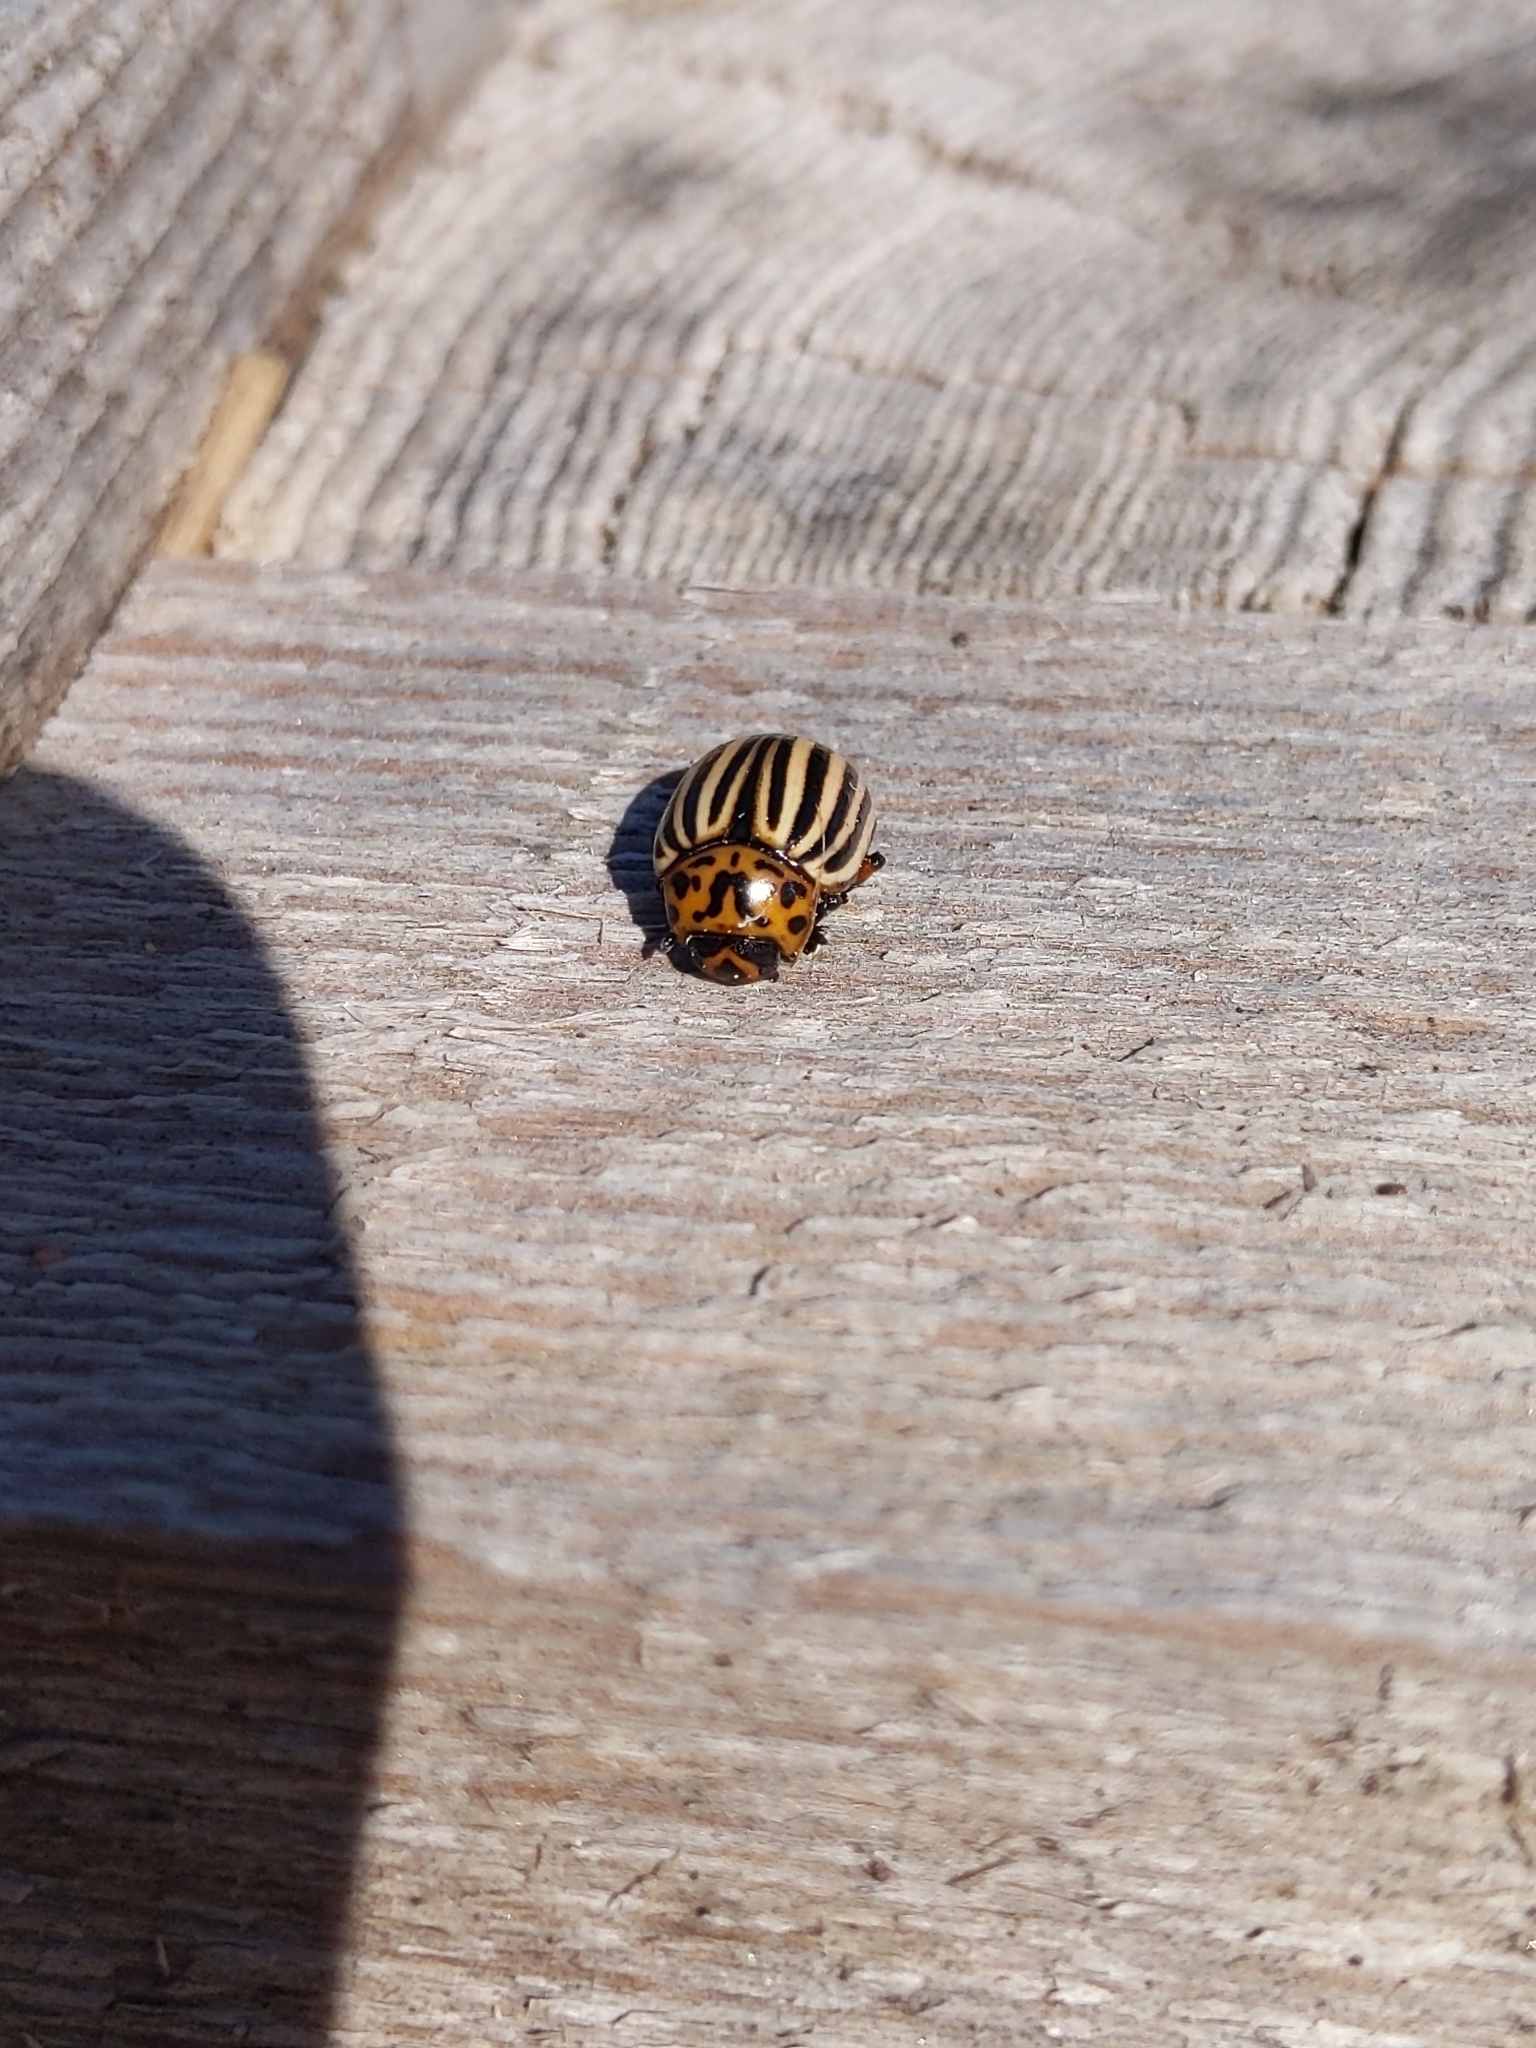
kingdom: Animalia
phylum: Arthropoda
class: Insecta
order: Coleoptera
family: Chrysomelidae
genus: Leptinotarsa
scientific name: Leptinotarsa decemlineata
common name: Colorado potato beetle
